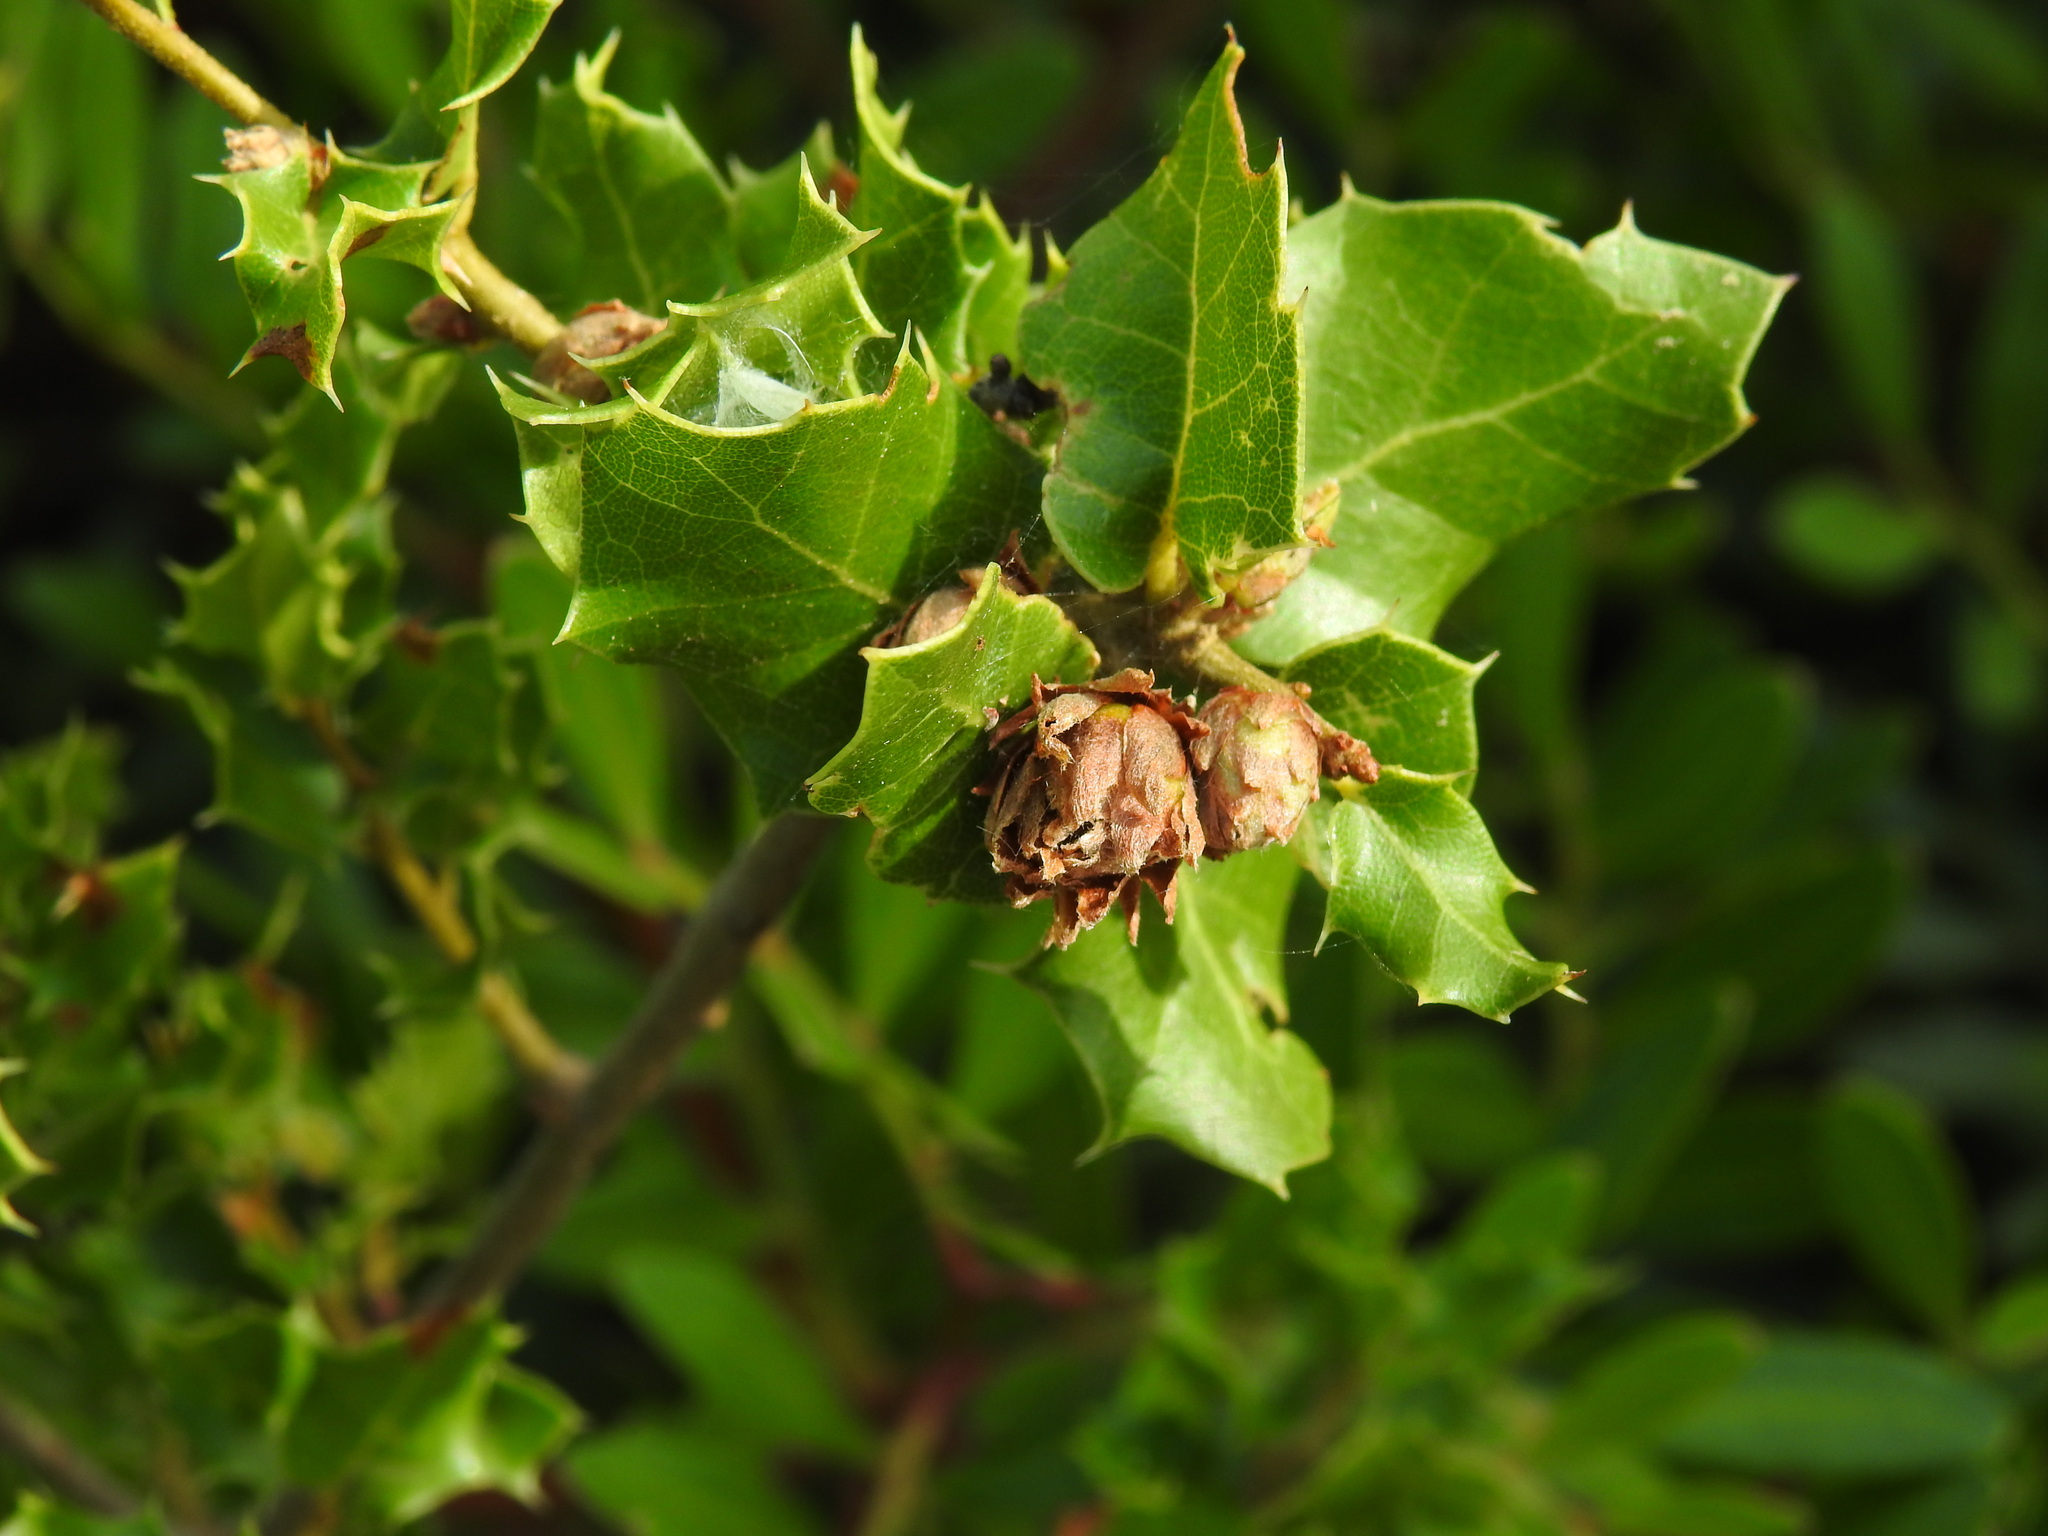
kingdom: Animalia
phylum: Arthropoda
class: Insecta
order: Diptera
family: Cecidomyiidae
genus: Blastodiplosis
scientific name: Blastodiplosis cocciferae
